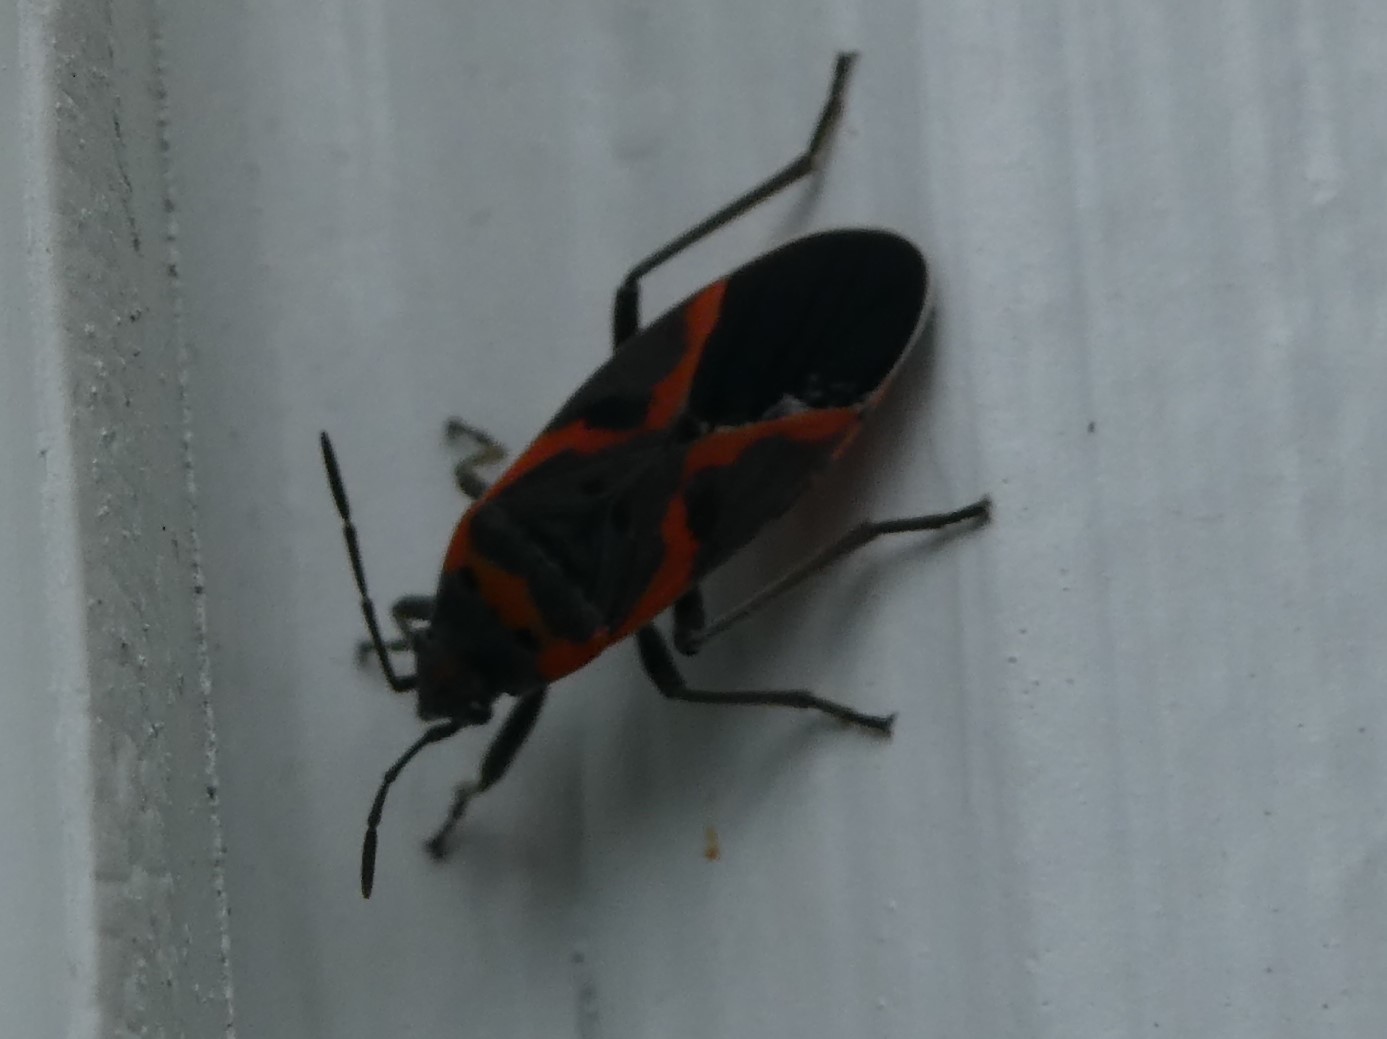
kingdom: Animalia
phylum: Arthropoda
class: Insecta
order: Hemiptera
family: Lygaeidae
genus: Lygaeus
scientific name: Lygaeus kalmii
